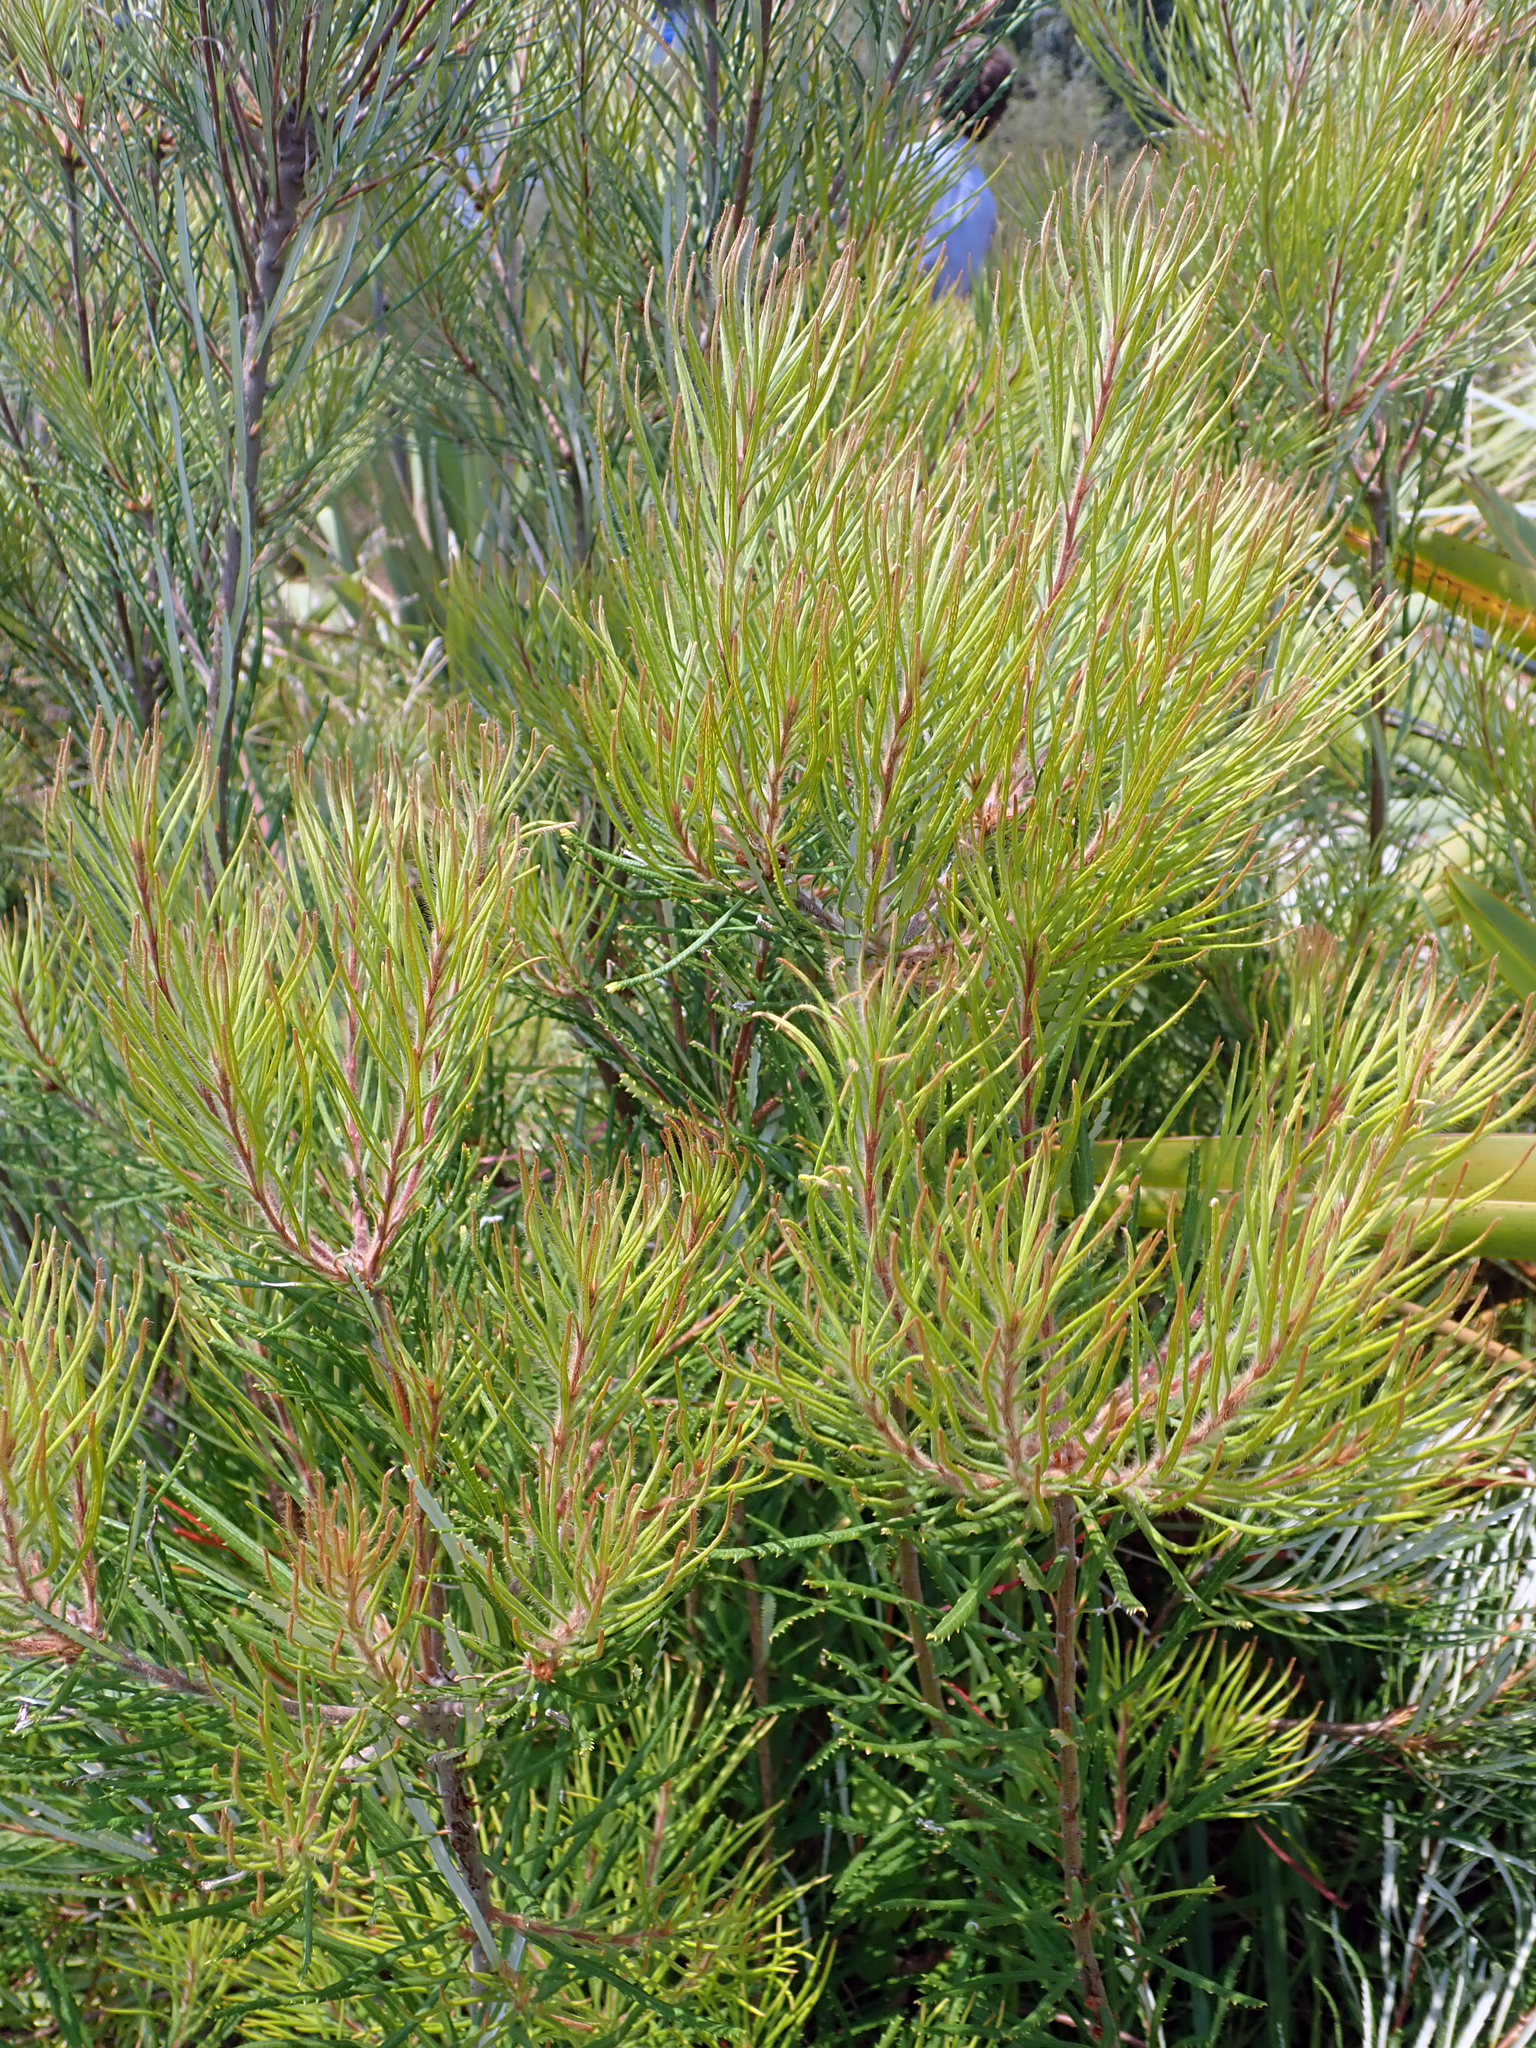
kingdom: Plantae
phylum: Tracheophyta
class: Magnoliopsida
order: Proteales
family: Proteaceae
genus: Banksia
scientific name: Banksia spinulosa
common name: Hairpin banksia
